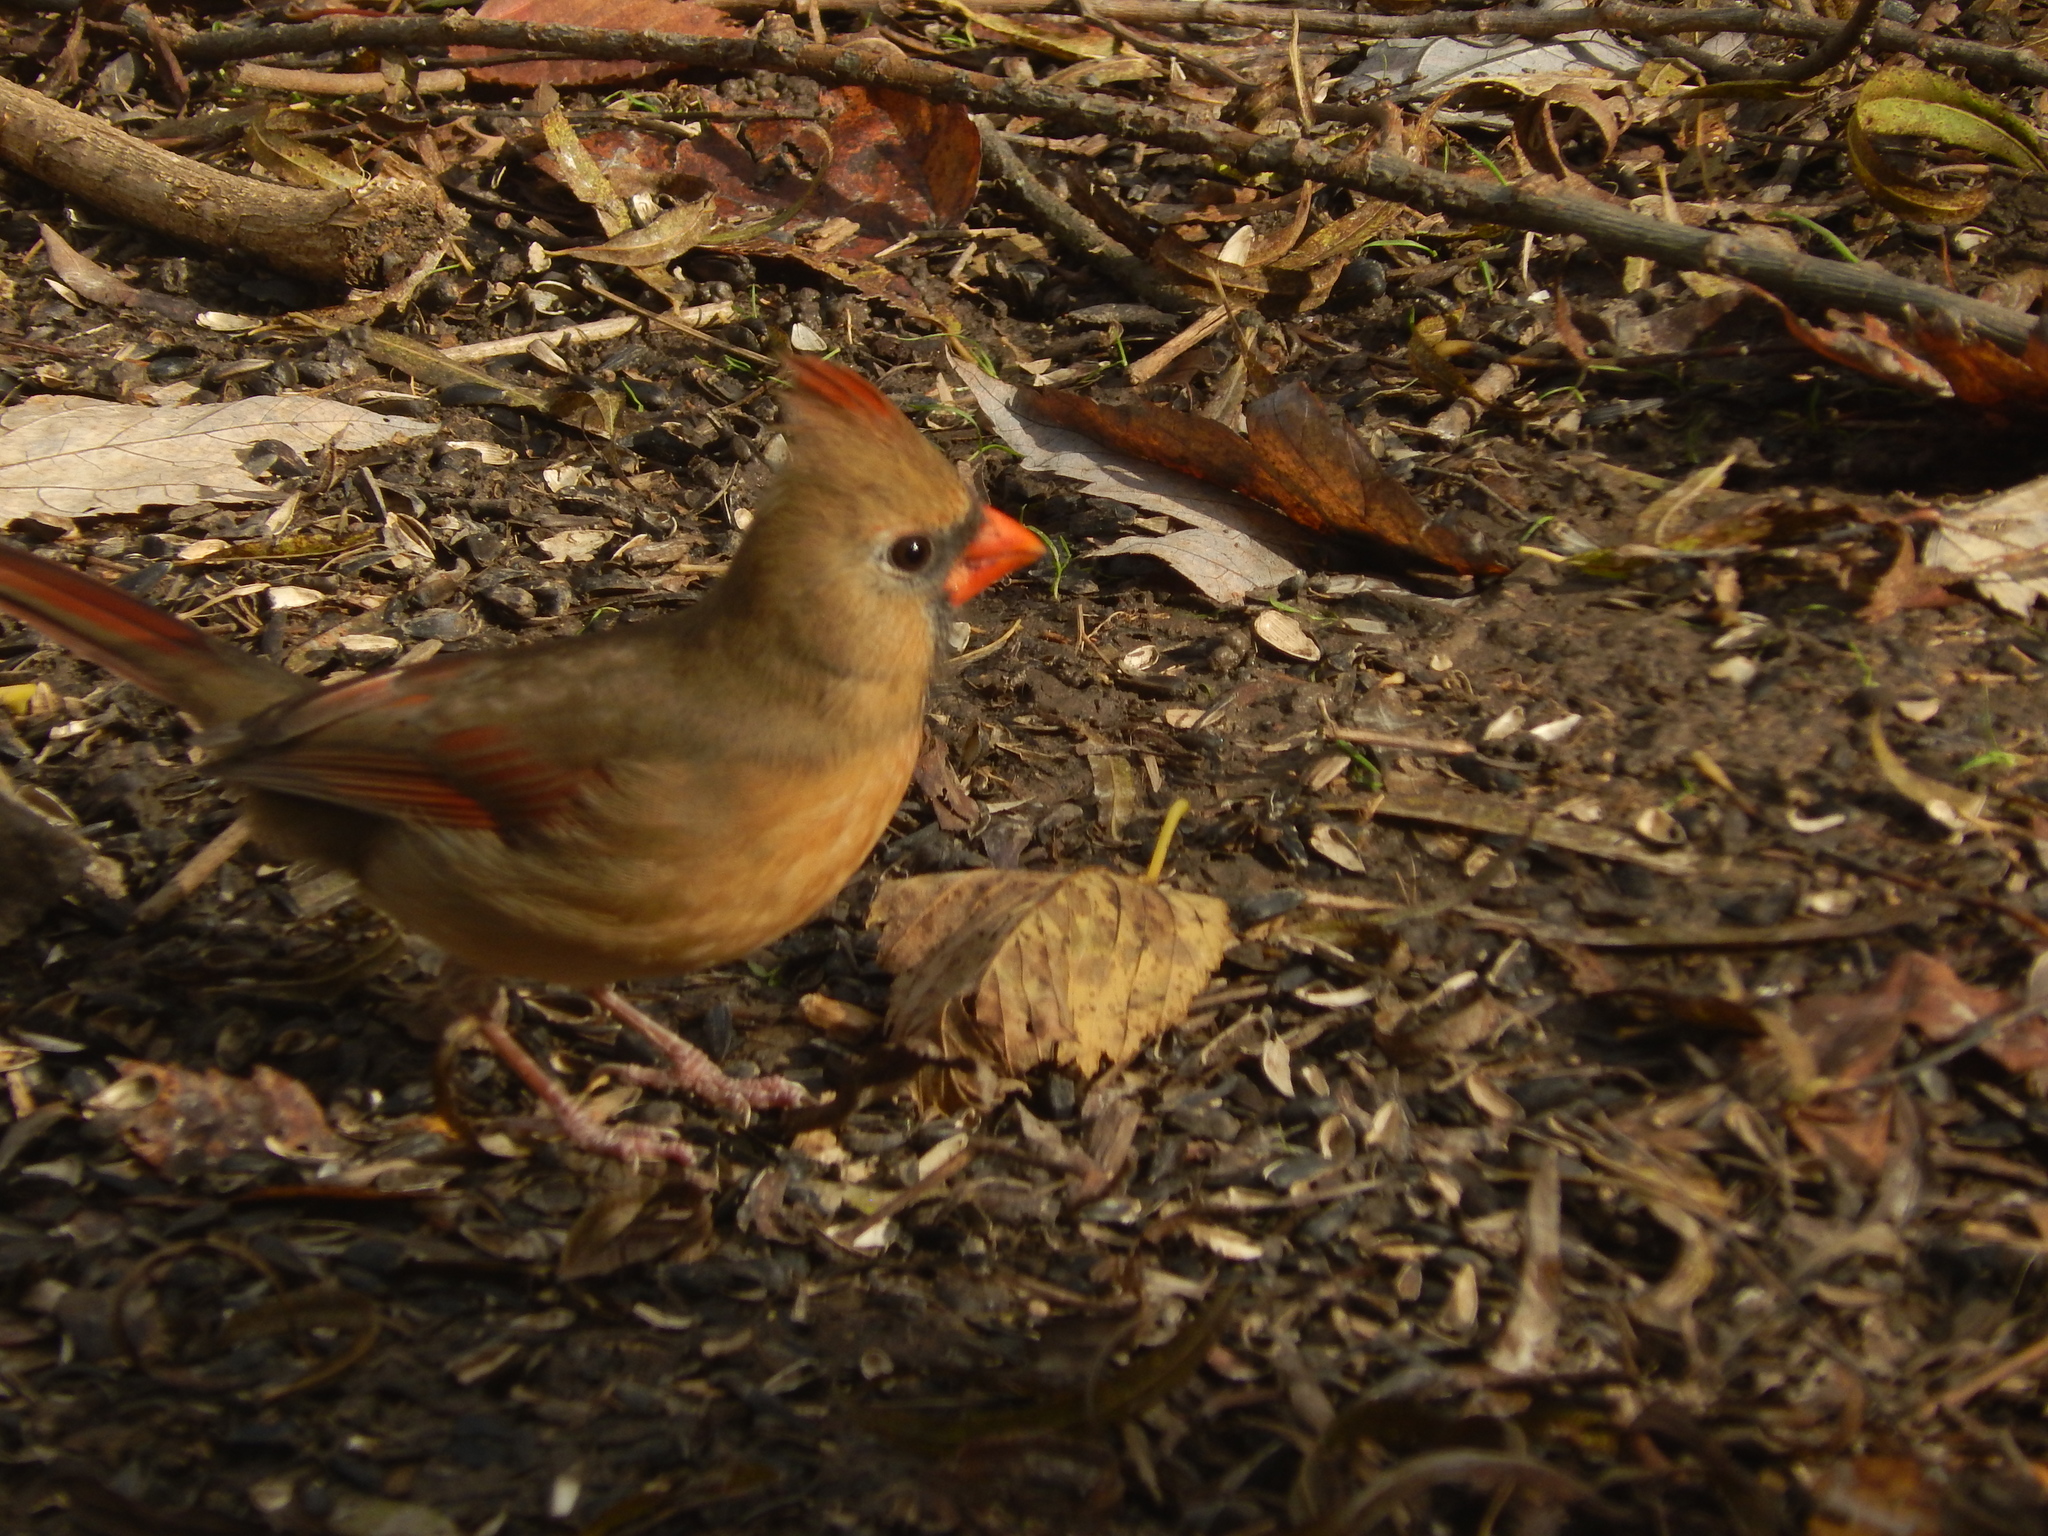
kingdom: Animalia
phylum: Chordata
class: Aves
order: Passeriformes
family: Cardinalidae
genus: Cardinalis
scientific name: Cardinalis cardinalis
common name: Northern cardinal
